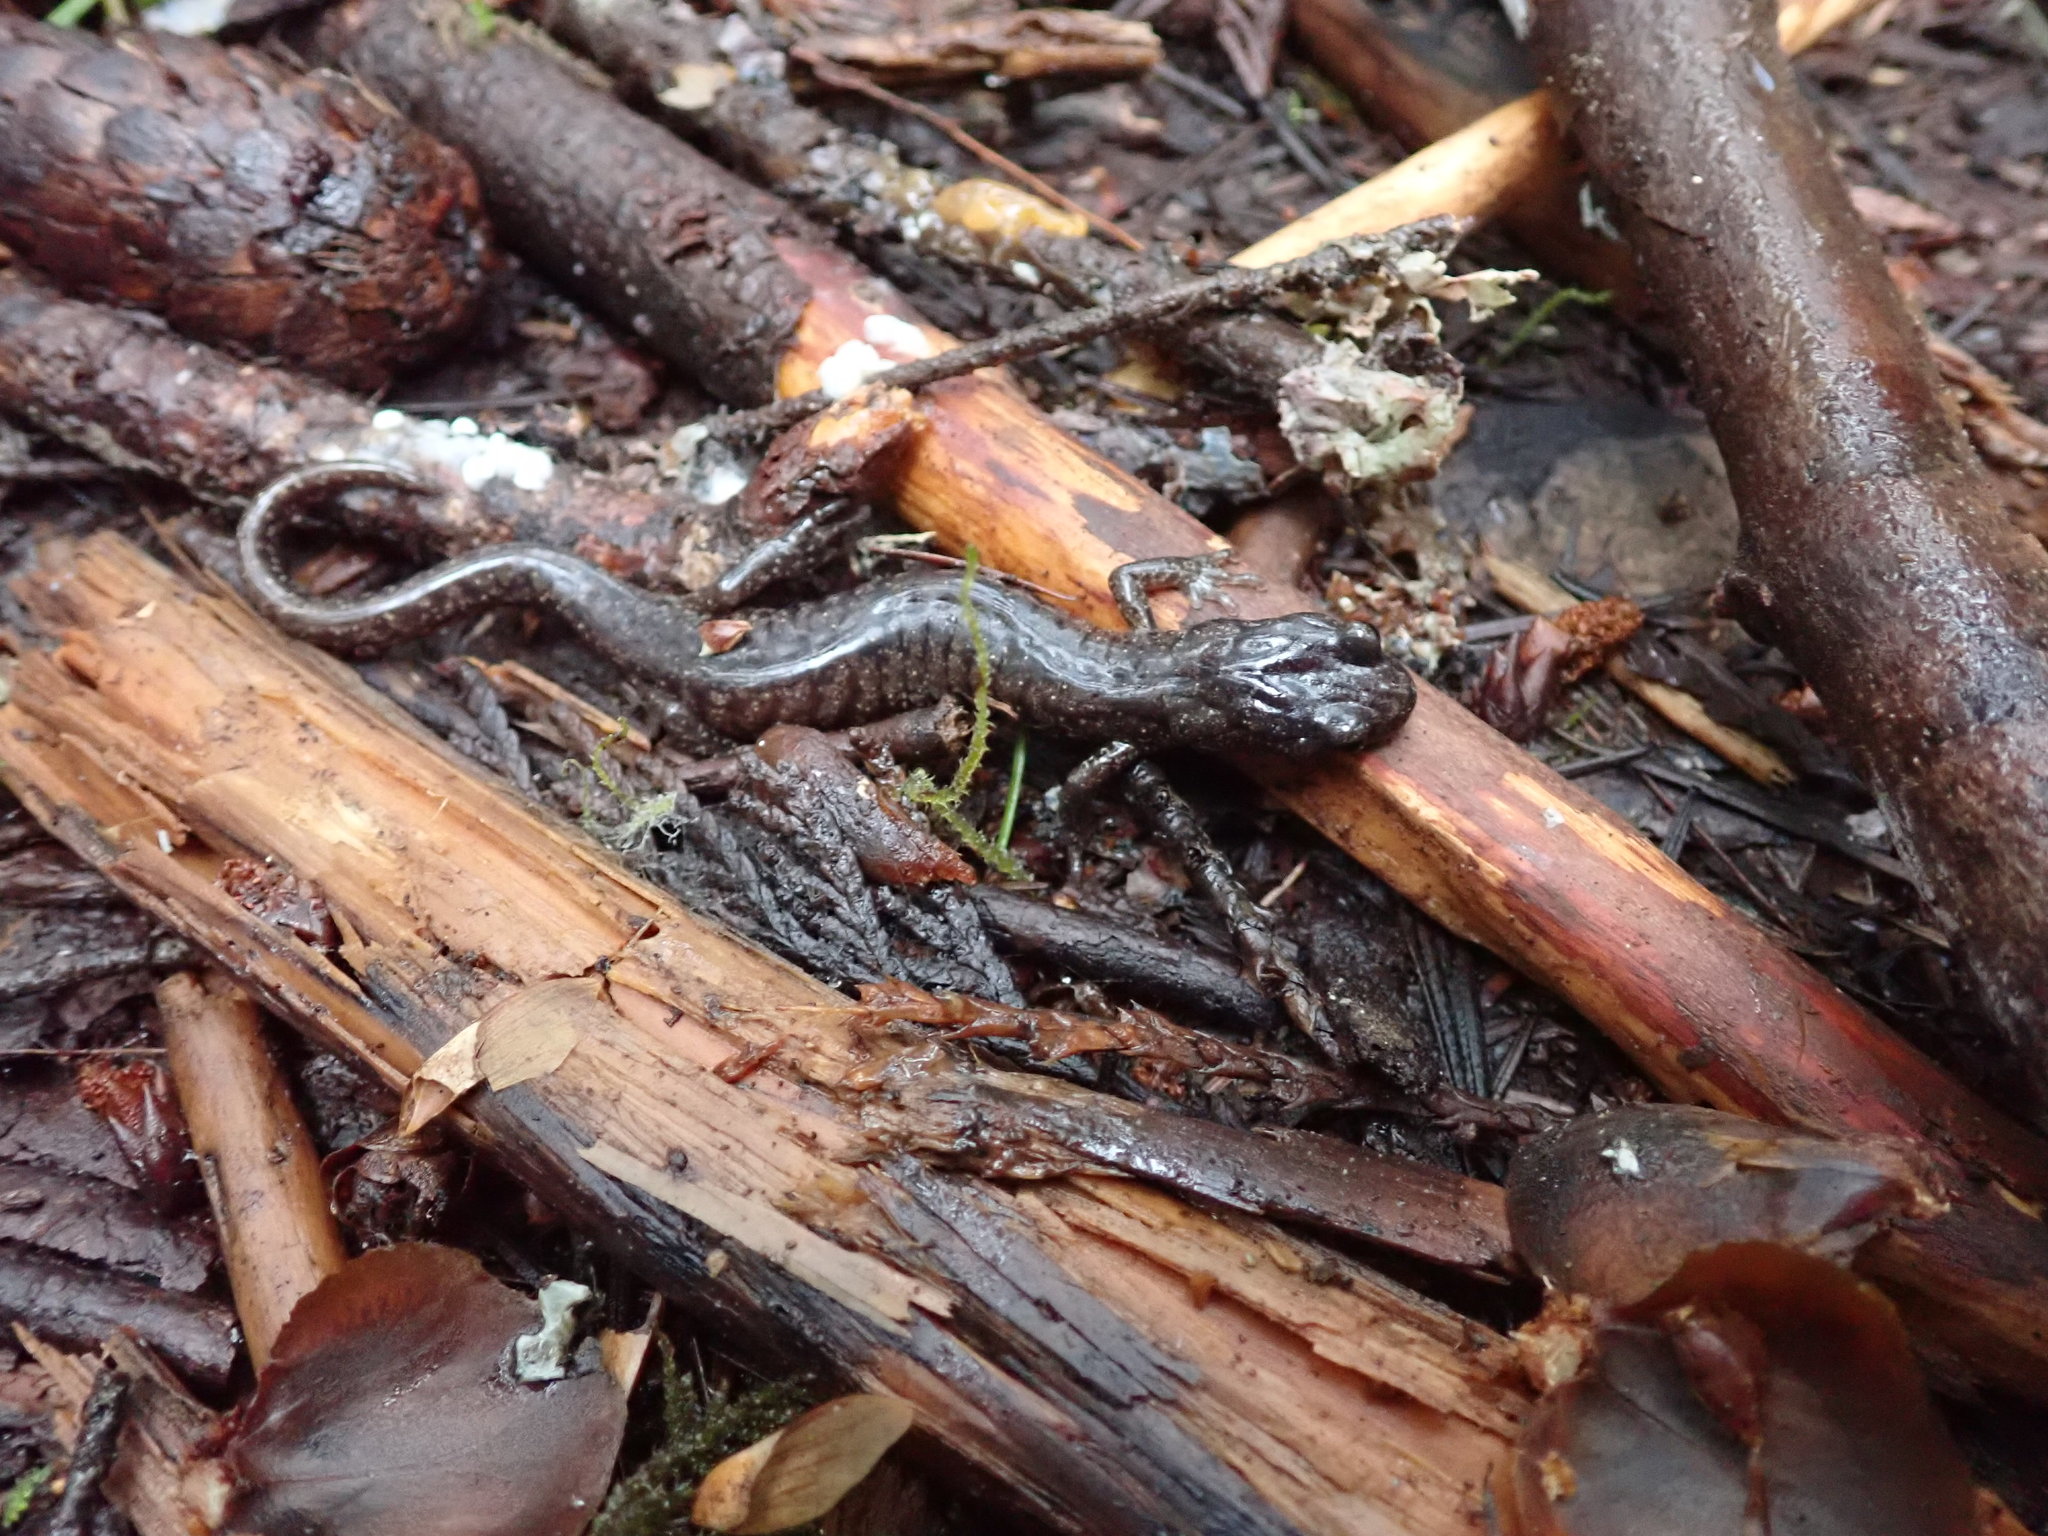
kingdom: Animalia
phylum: Chordata
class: Amphibia
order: Caudata
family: Plethodontidae
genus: Aneides
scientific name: Aneides vagrans
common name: Wandering salamander
